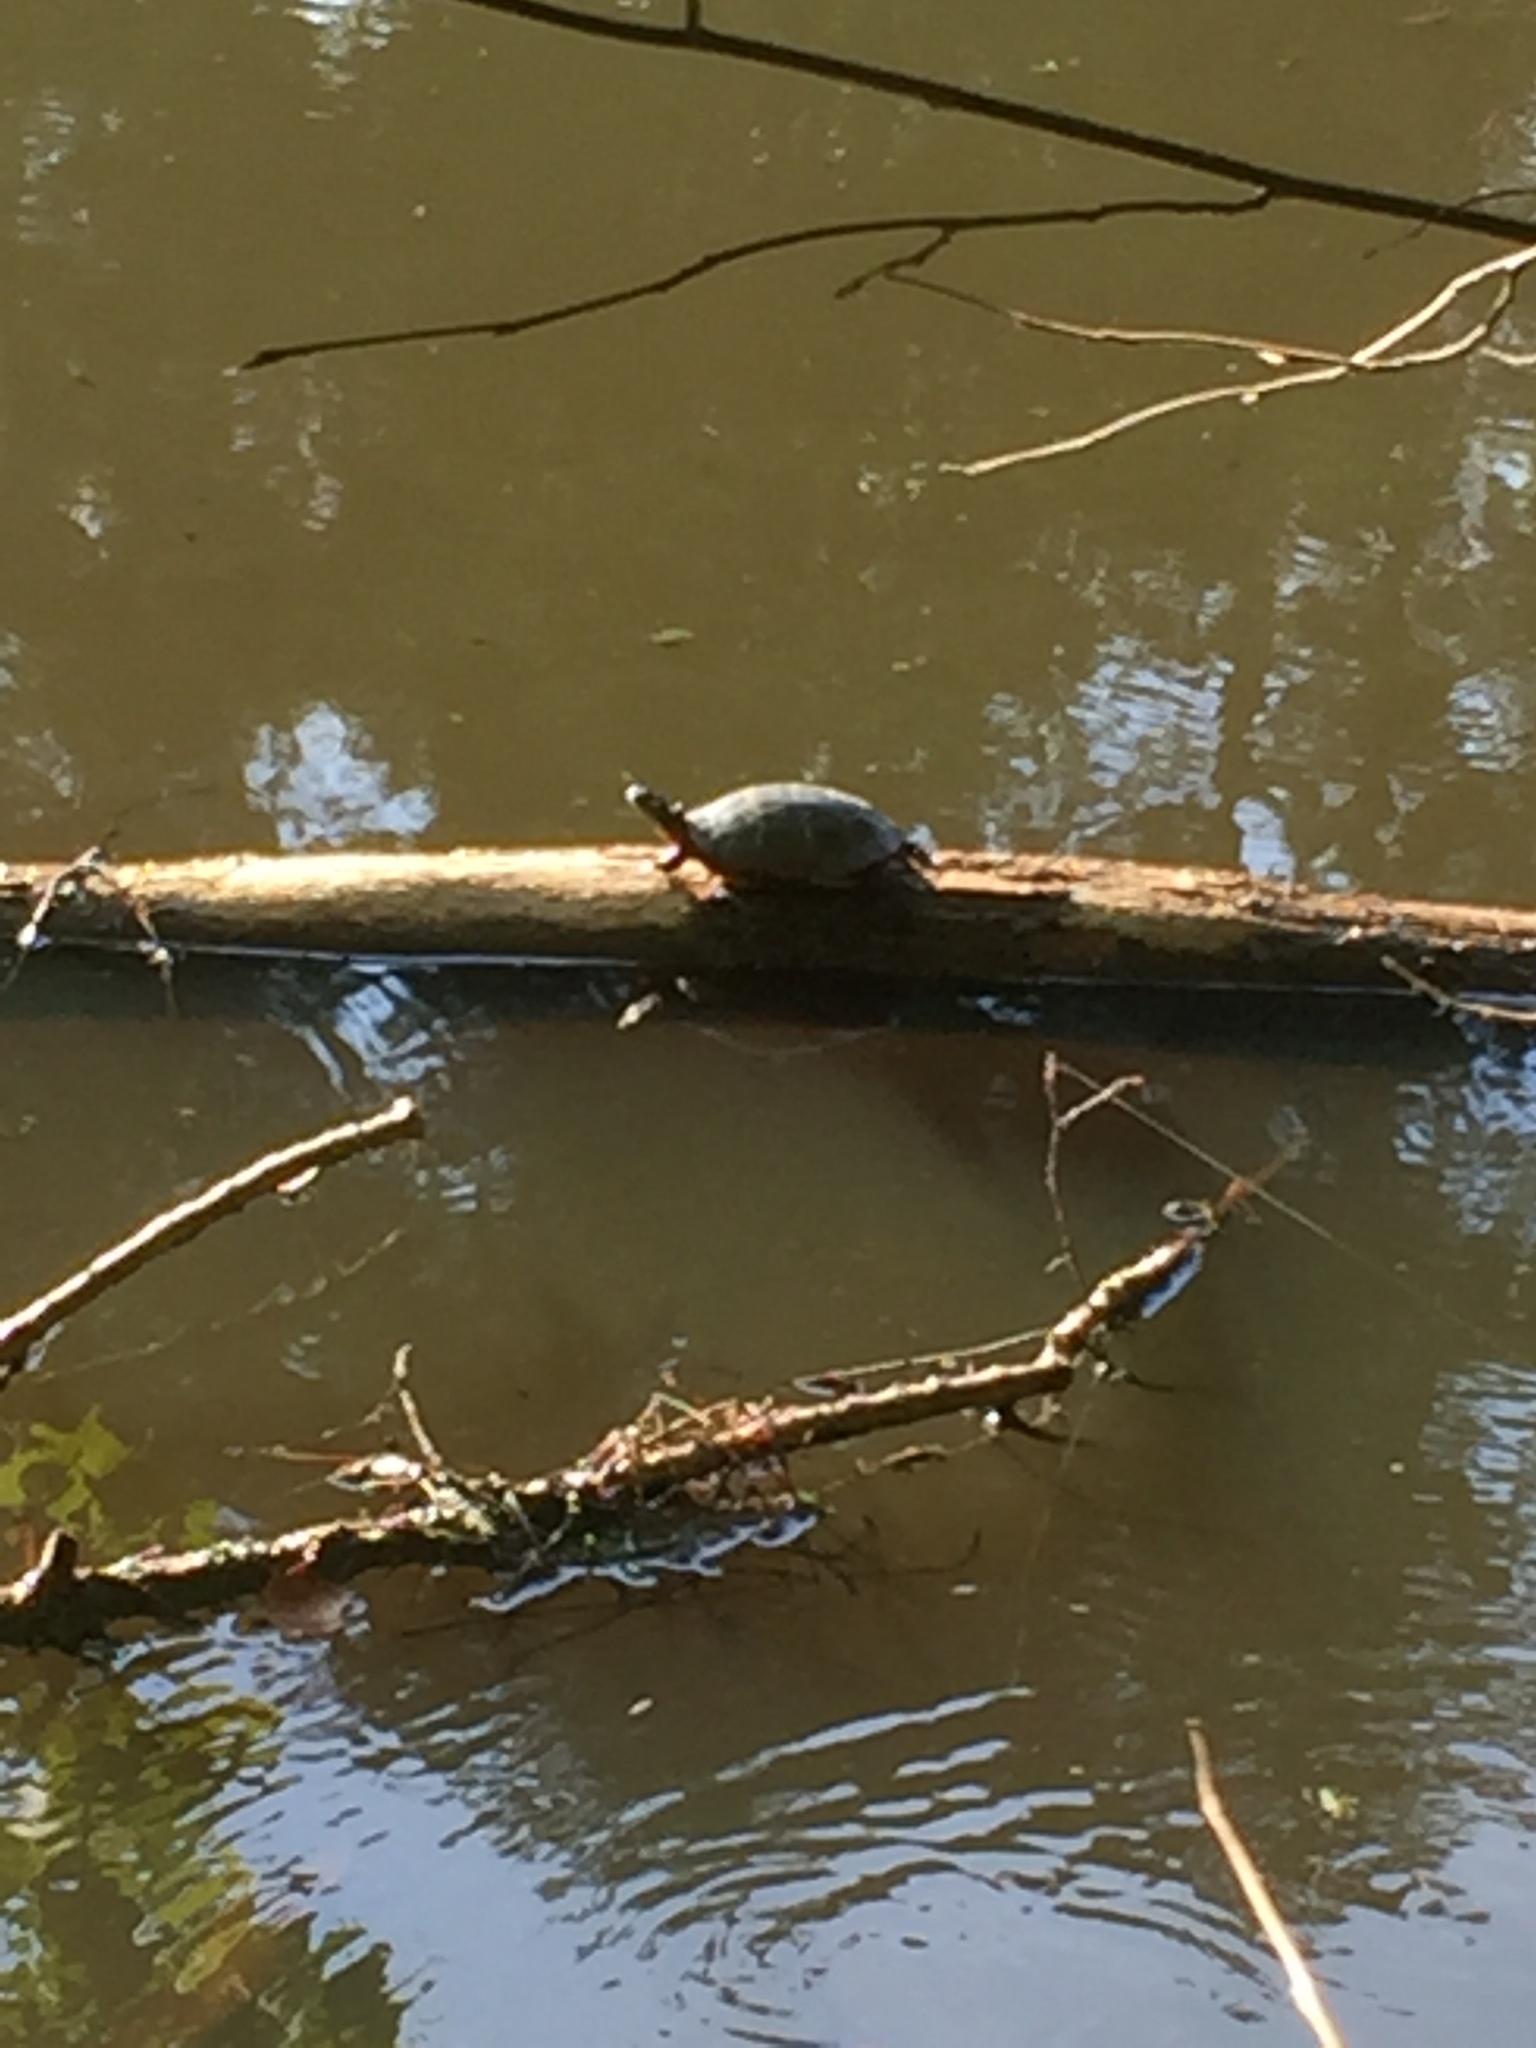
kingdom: Animalia
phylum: Chordata
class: Testudines
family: Emydidae
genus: Chrysemys
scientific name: Chrysemys picta
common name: Painted turtle
